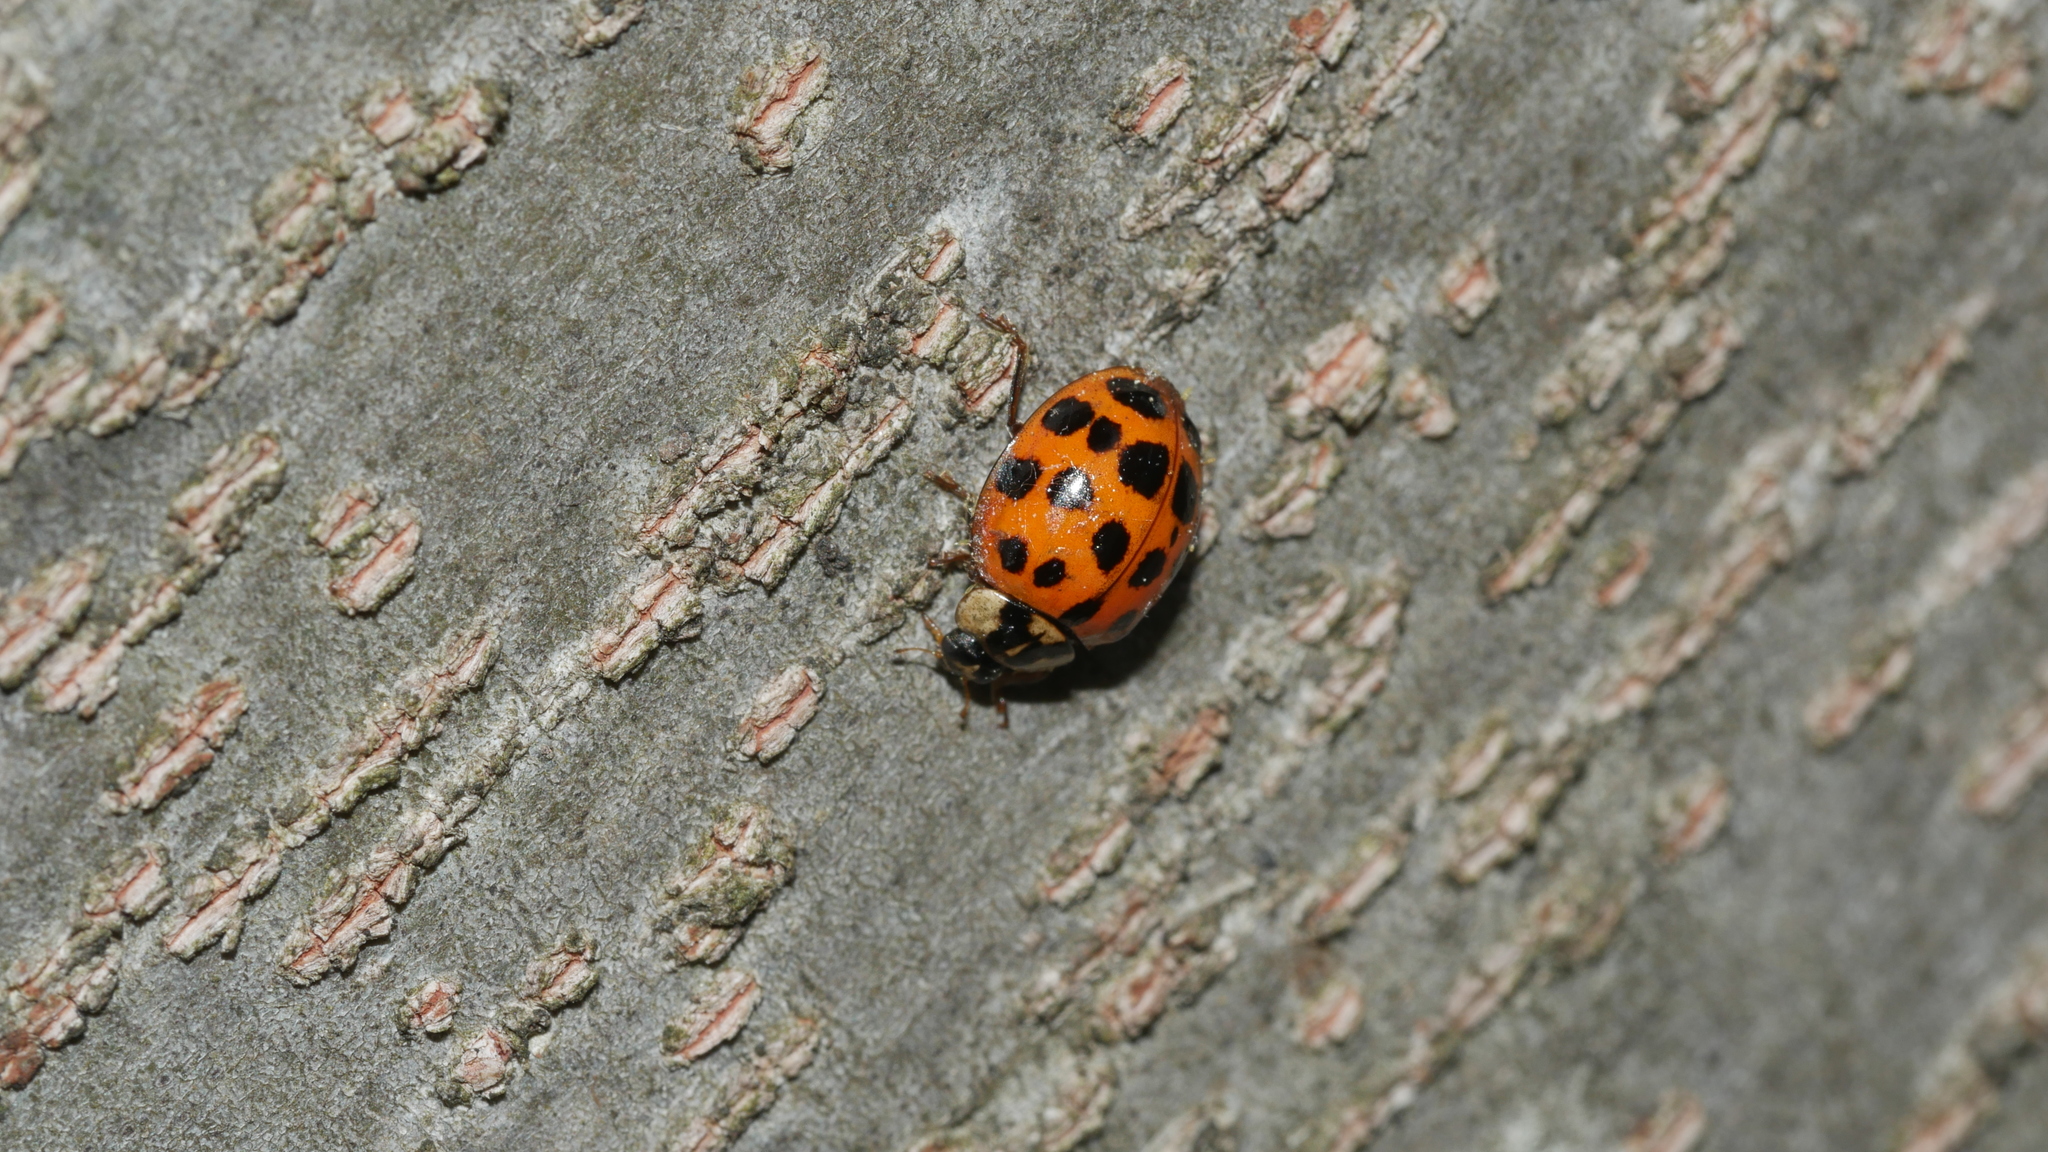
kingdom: Animalia
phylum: Arthropoda
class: Insecta
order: Coleoptera
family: Coccinellidae
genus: Harmonia
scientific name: Harmonia axyridis
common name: Harlequin ladybird
